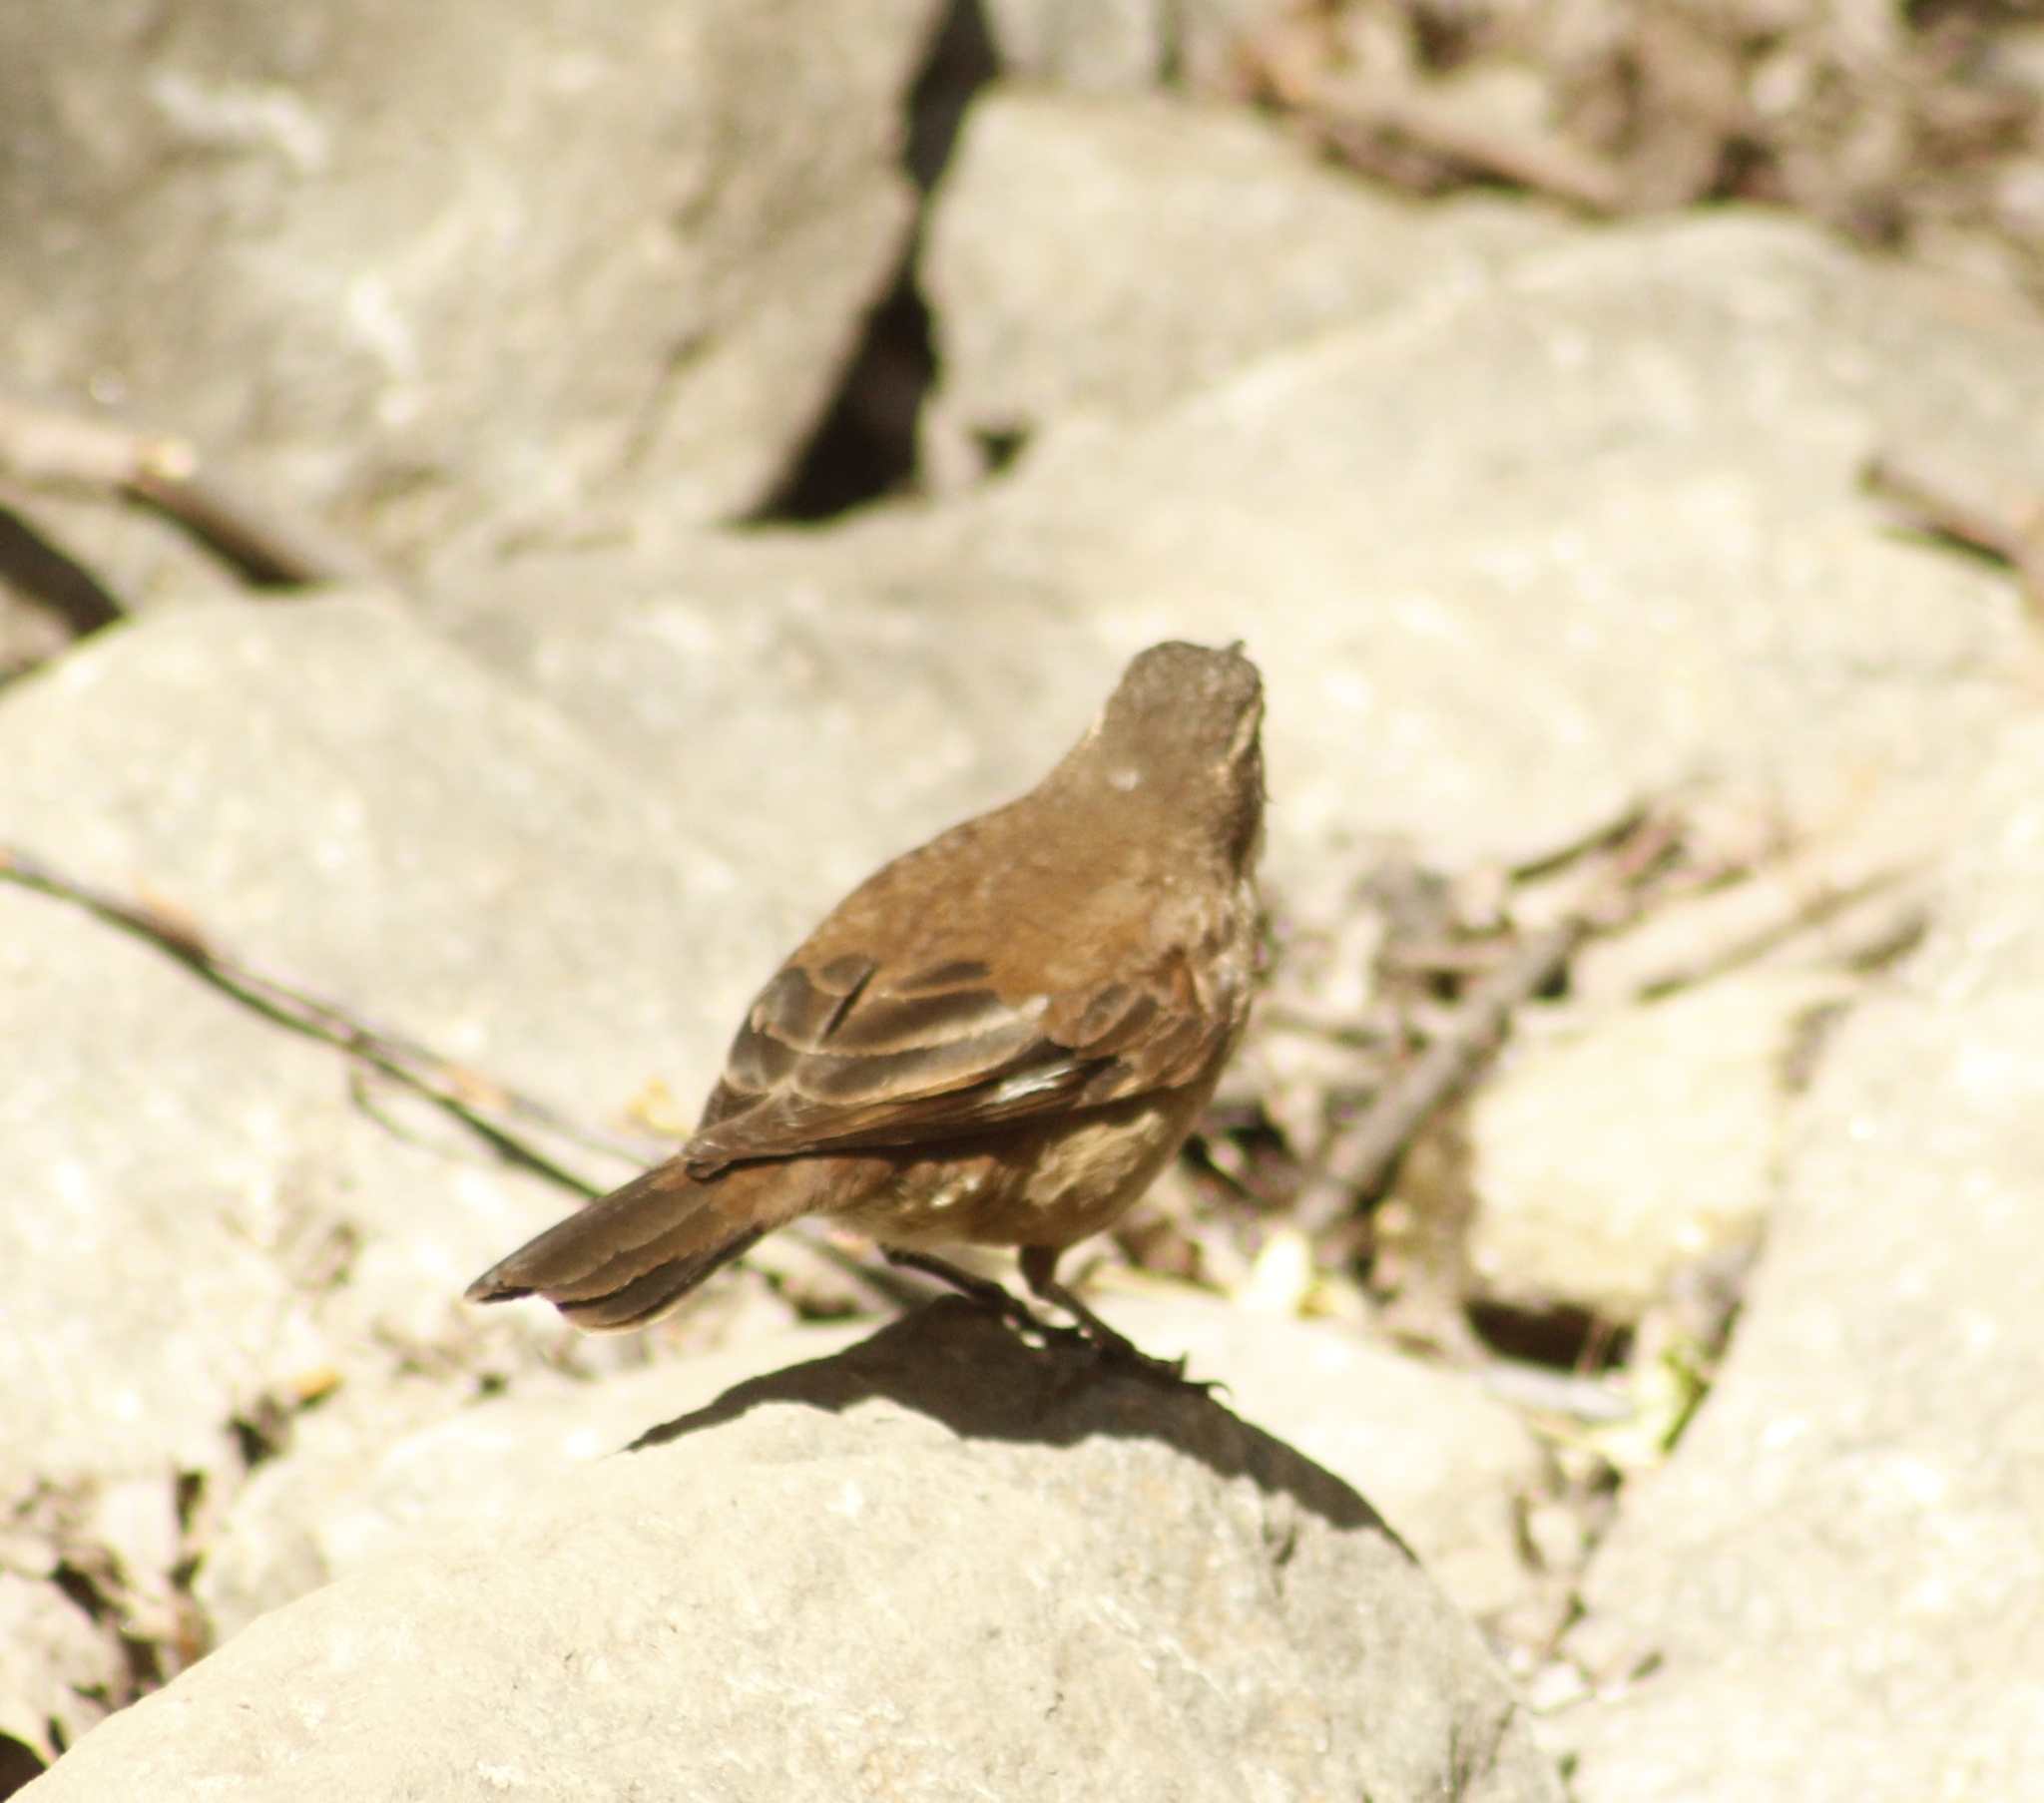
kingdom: Animalia
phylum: Chordata
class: Aves
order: Passeriformes
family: Furnariidae
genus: Cinclodes
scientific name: Cinclodes atacamensis
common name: White-winged cinclodes
